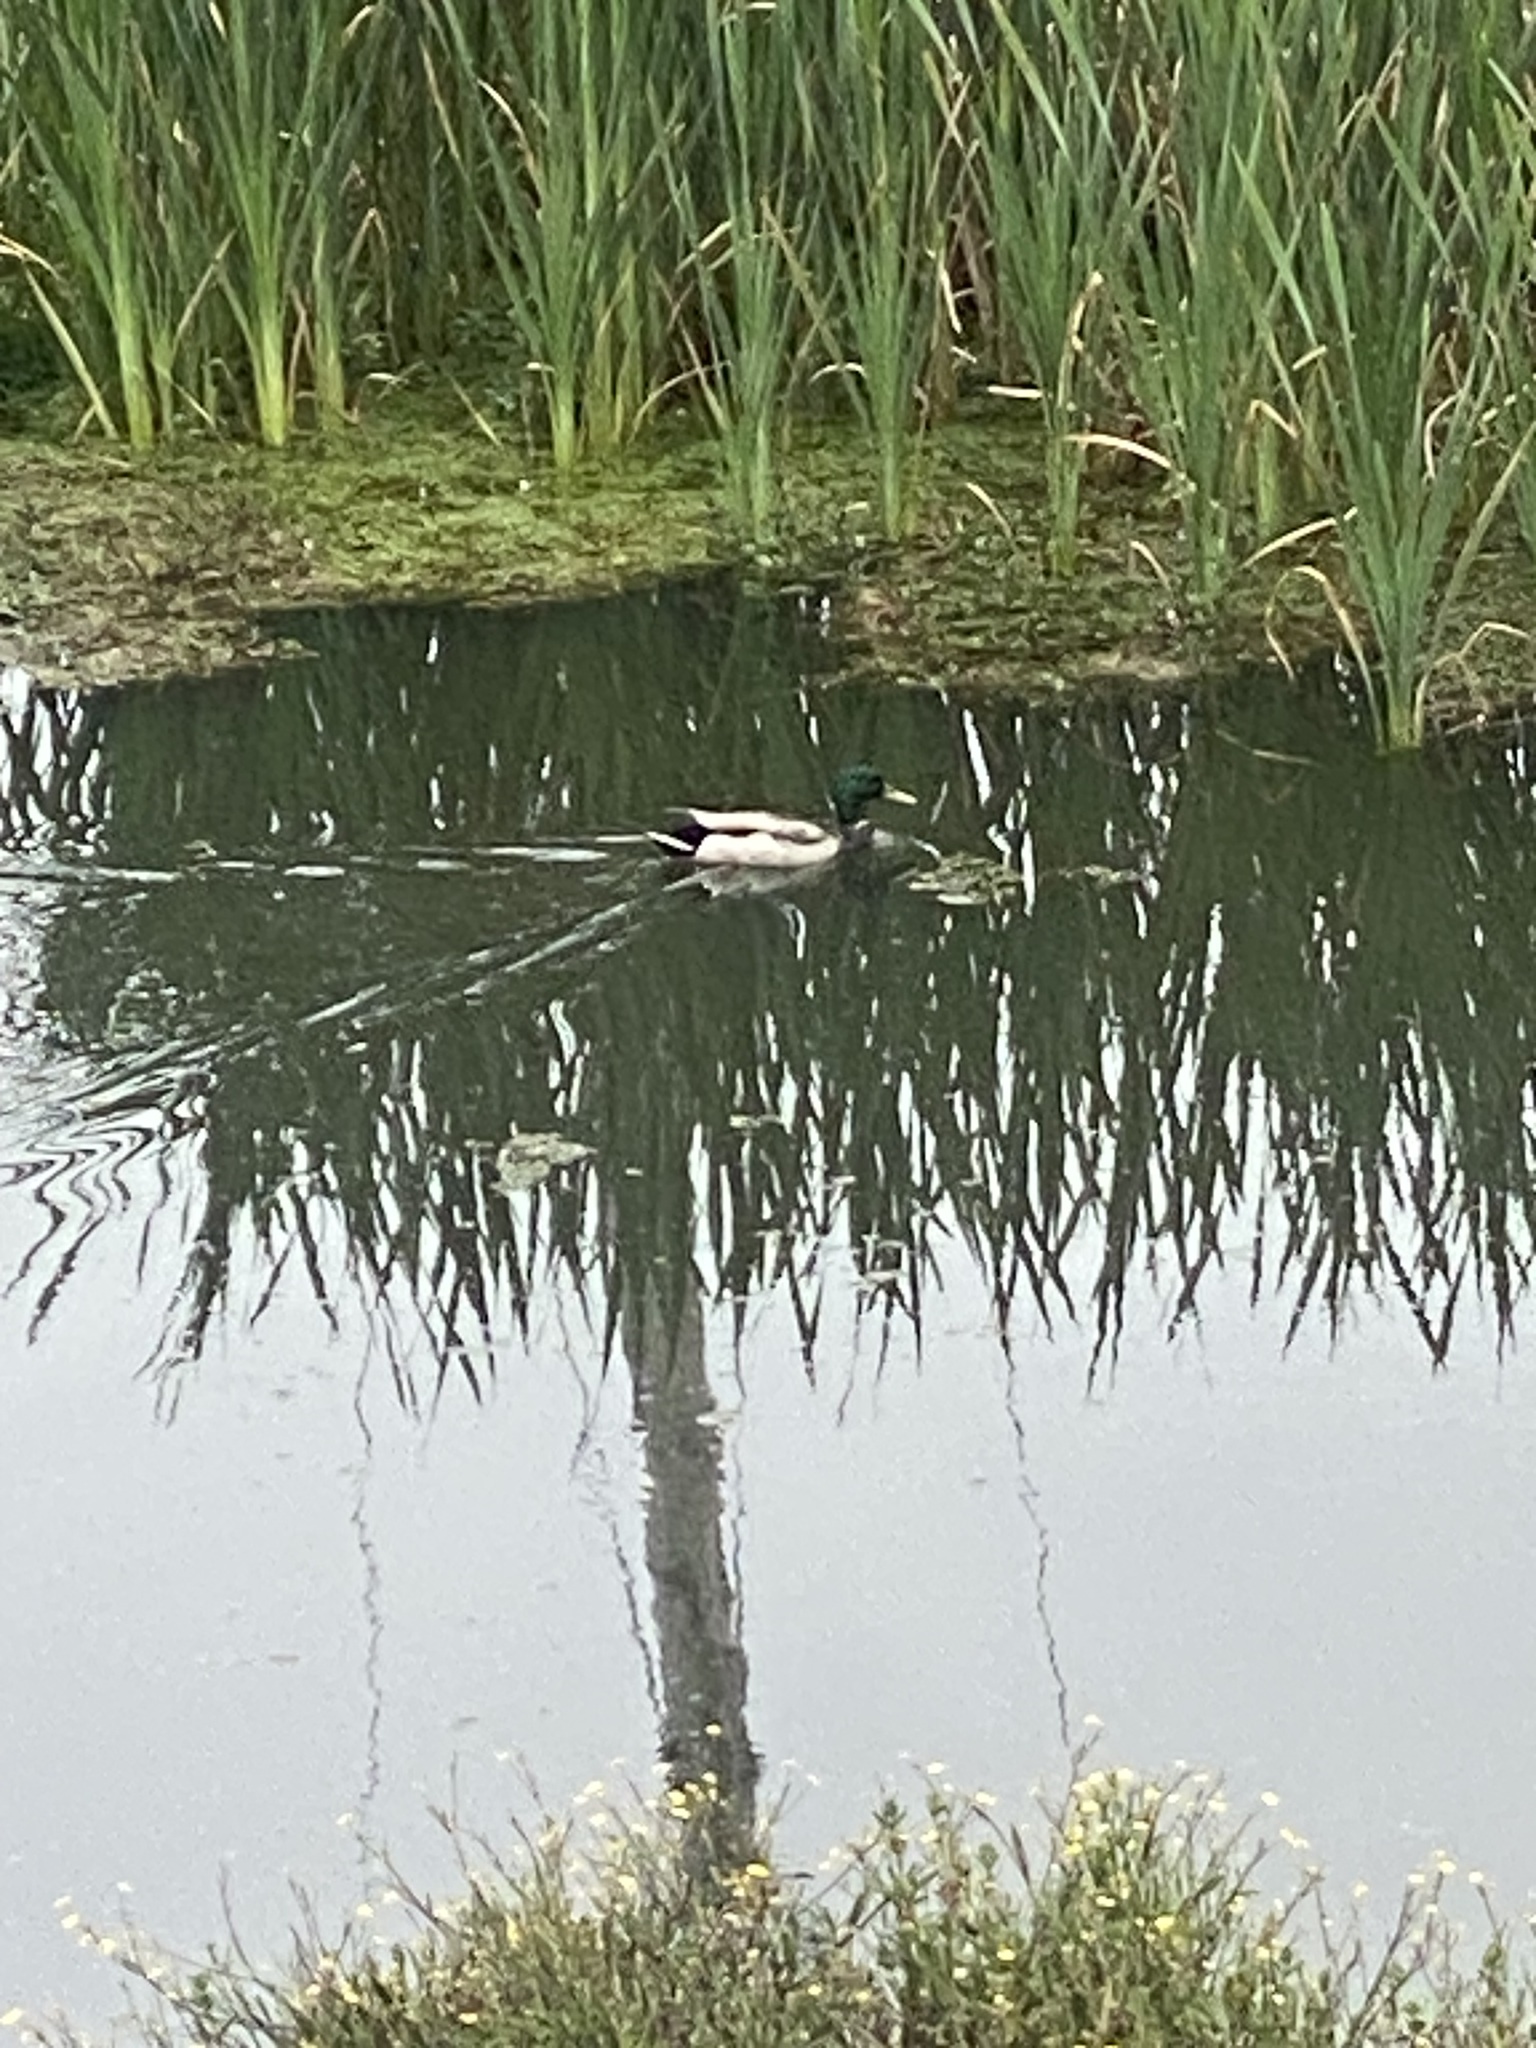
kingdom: Animalia
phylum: Chordata
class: Aves
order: Anseriformes
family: Anatidae
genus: Anas
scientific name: Anas platyrhynchos
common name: Mallard
